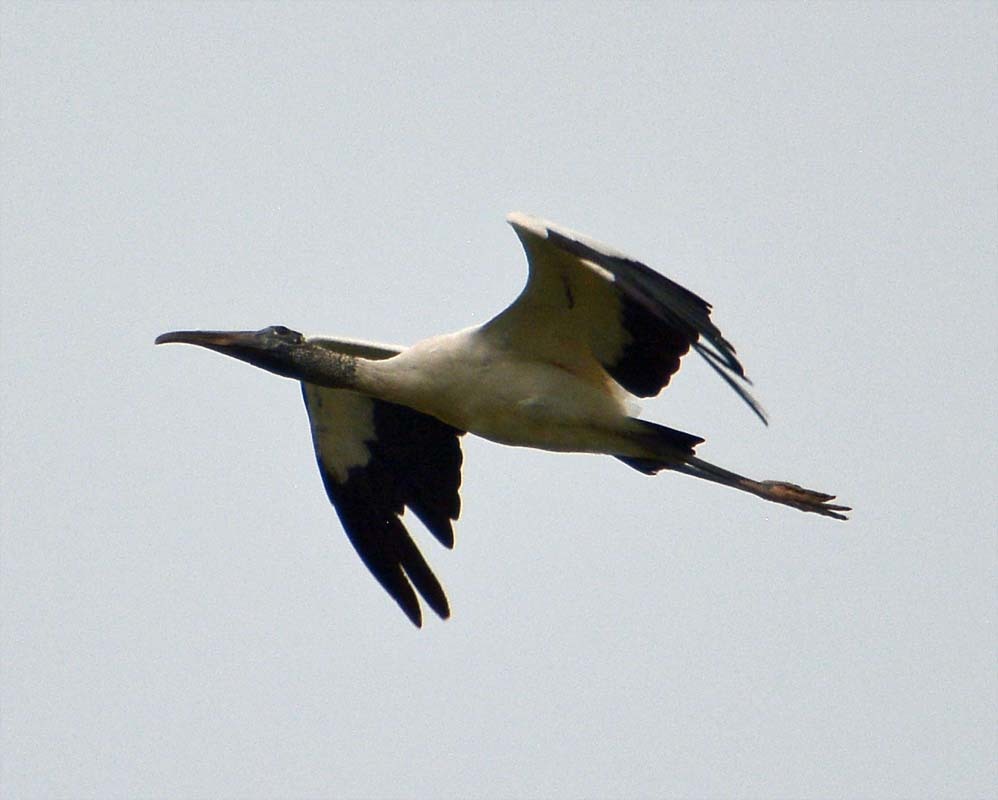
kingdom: Animalia
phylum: Chordata
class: Aves
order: Ciconiiformes
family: Ciconiidae
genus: Mycteria
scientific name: Mycteria americana
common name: Wood stork
